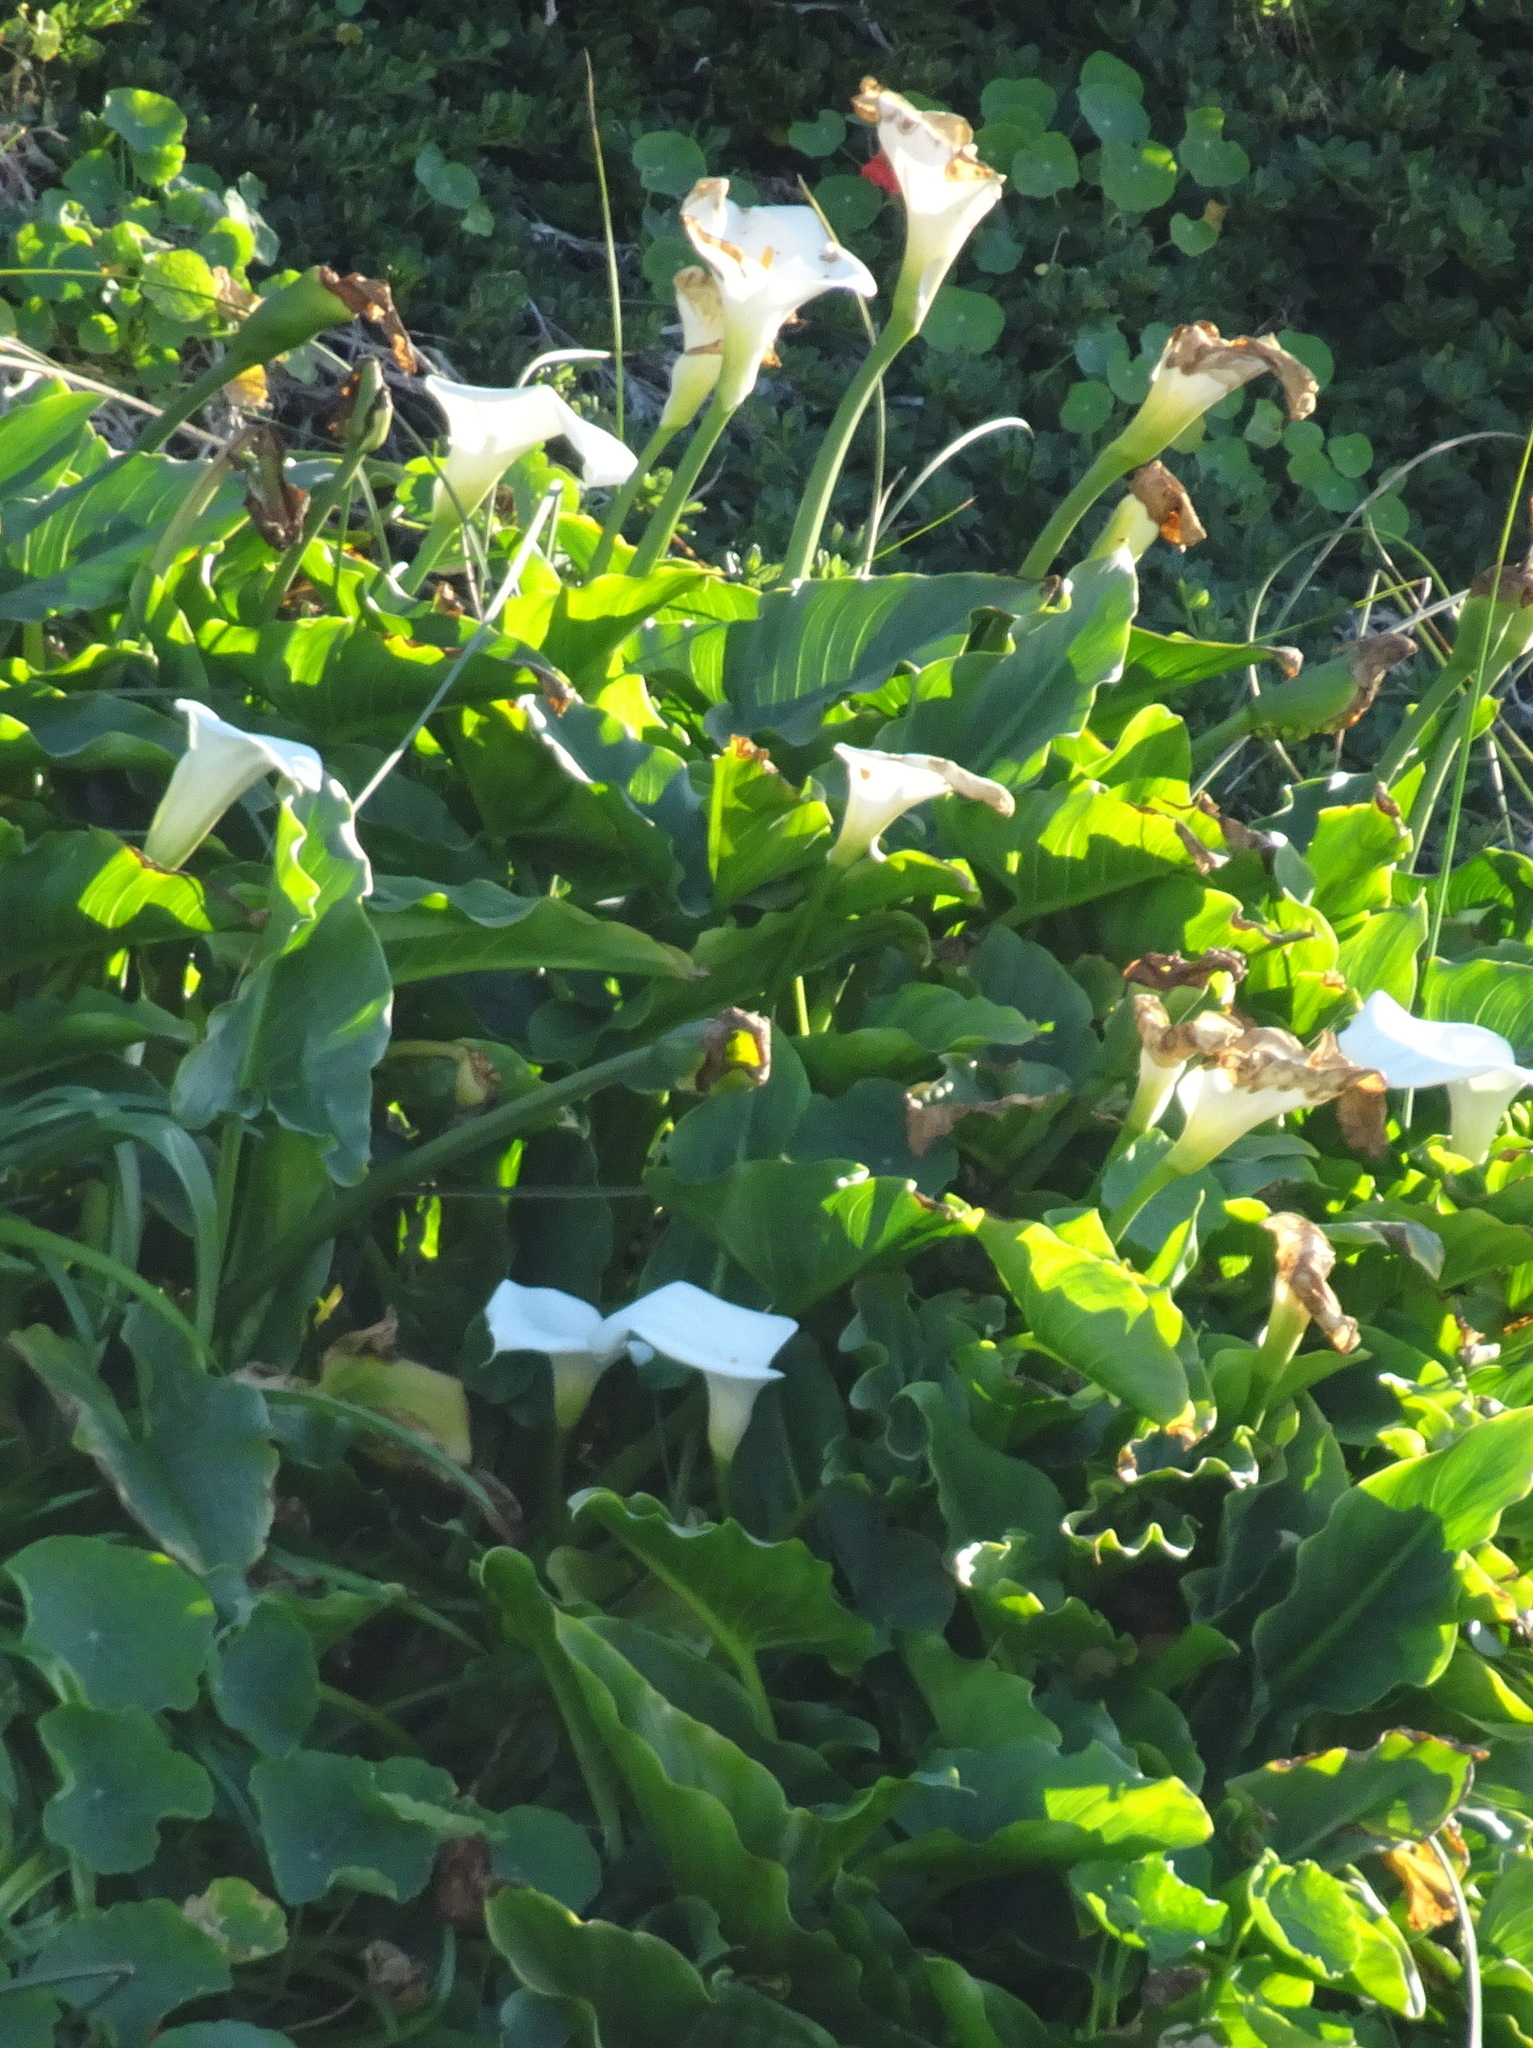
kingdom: Plantae
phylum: Tracheophyta
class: Liliopsida
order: Alismatales
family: Araceae
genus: Zantedeschia
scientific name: Zantedeschia aethiopica
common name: Altar-lily
